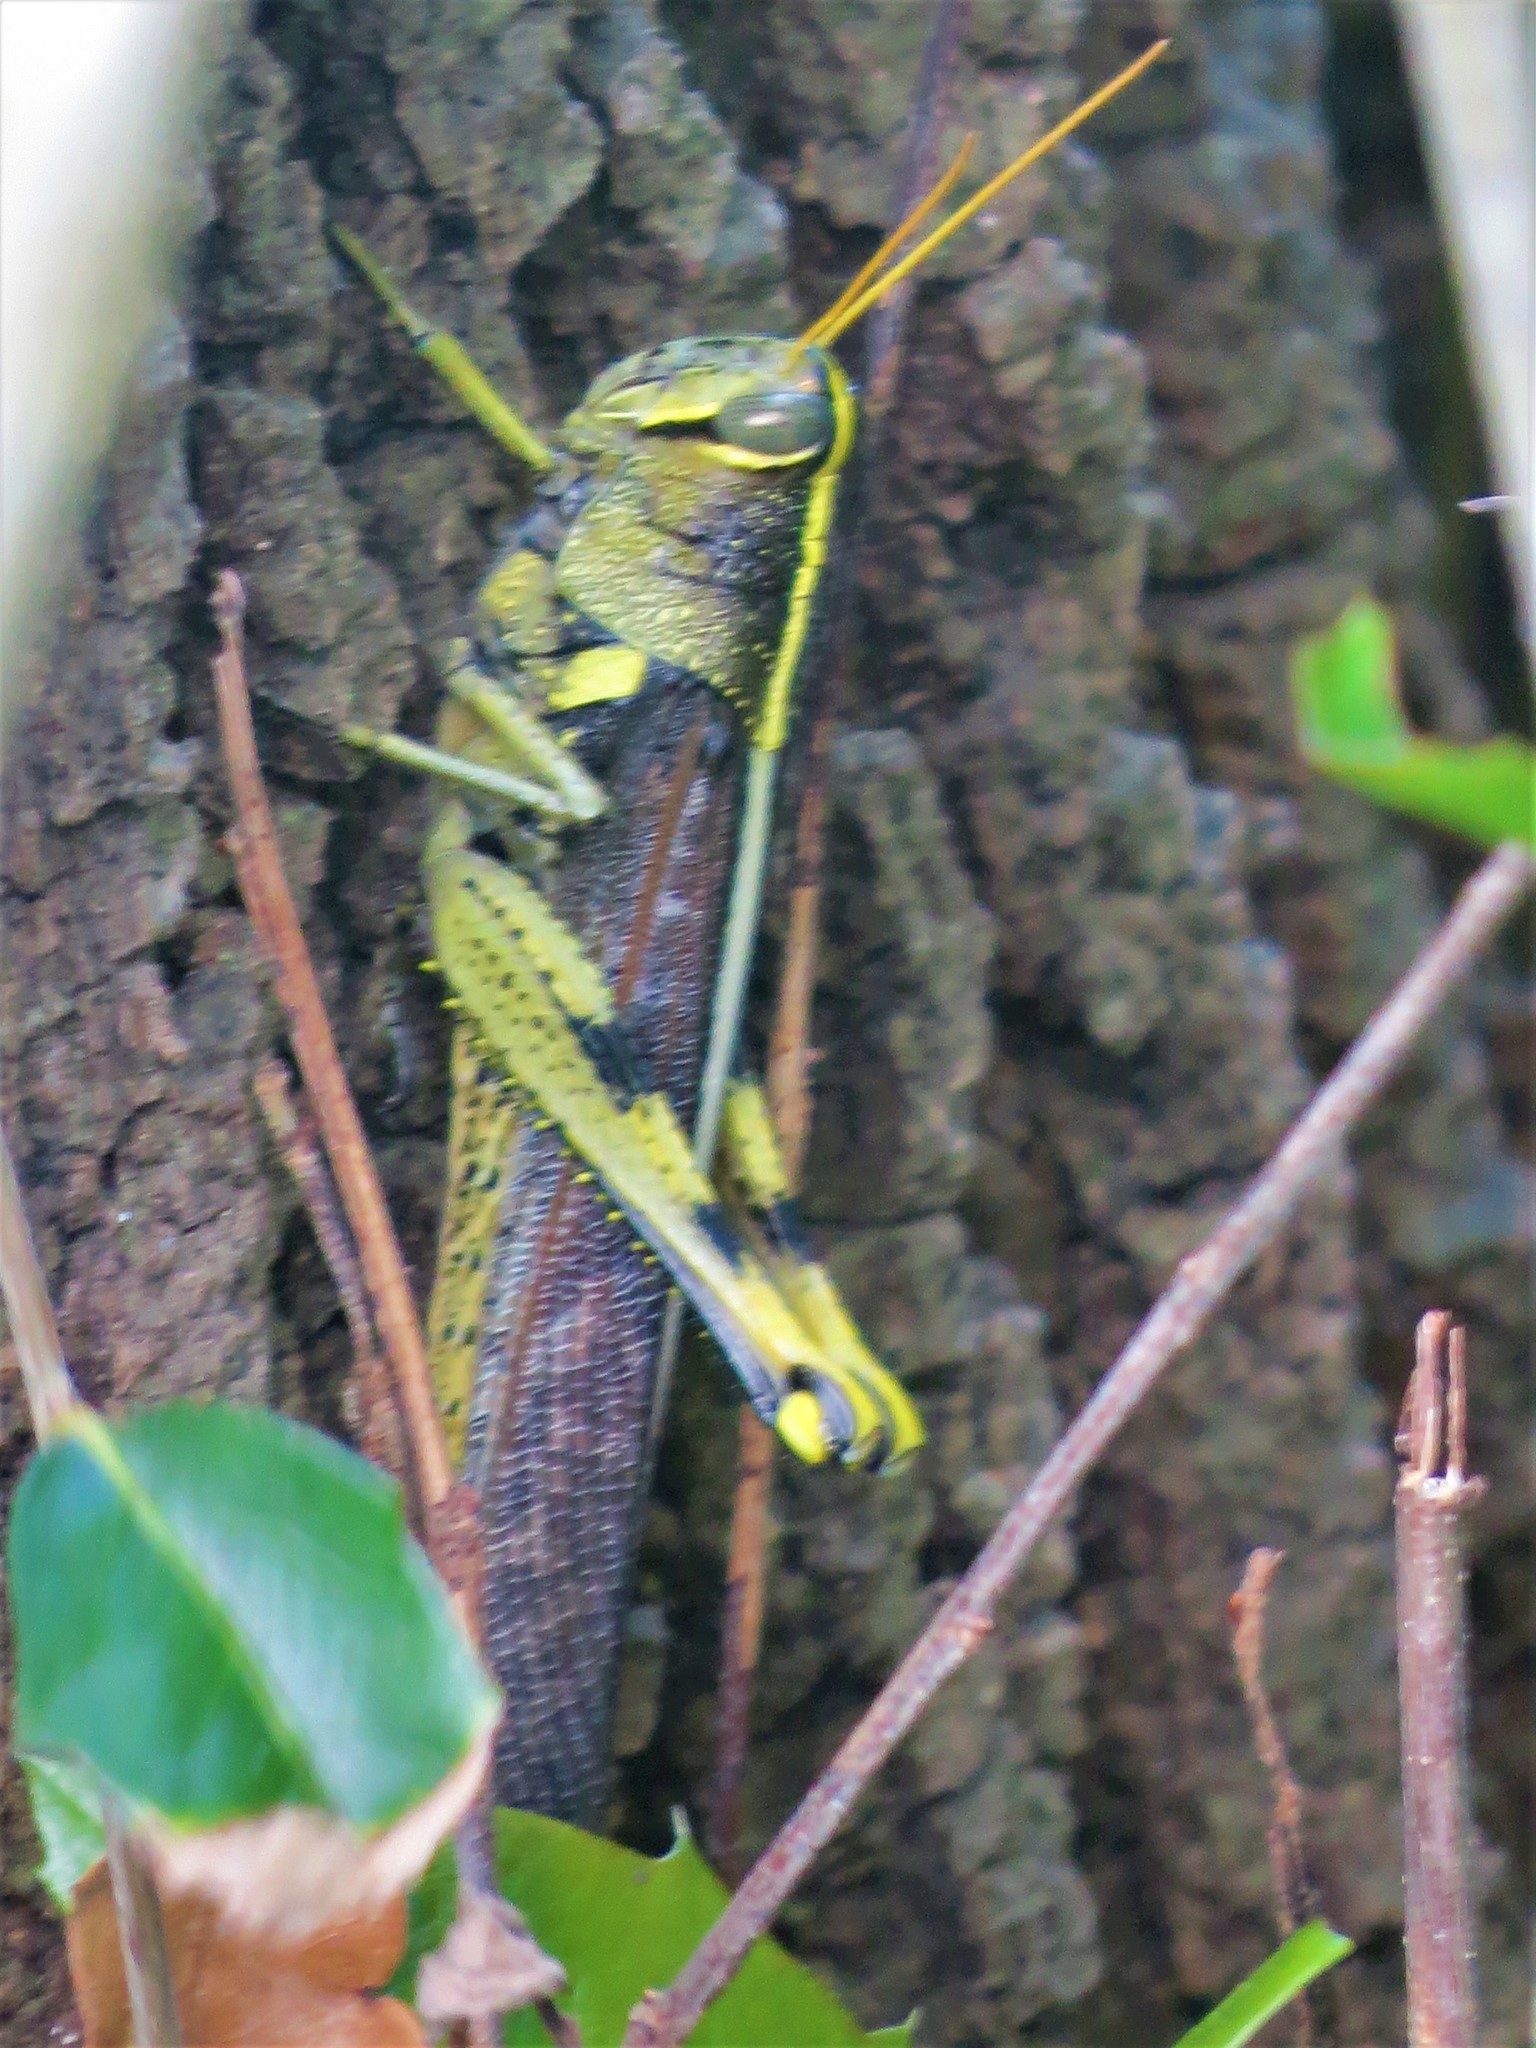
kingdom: Animalia
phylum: Arthropoda
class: Insecta
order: Orthoptera
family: Acrididae
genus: Schistocerca
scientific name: Schistocerca obscura
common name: Obscure bird grasshopper
